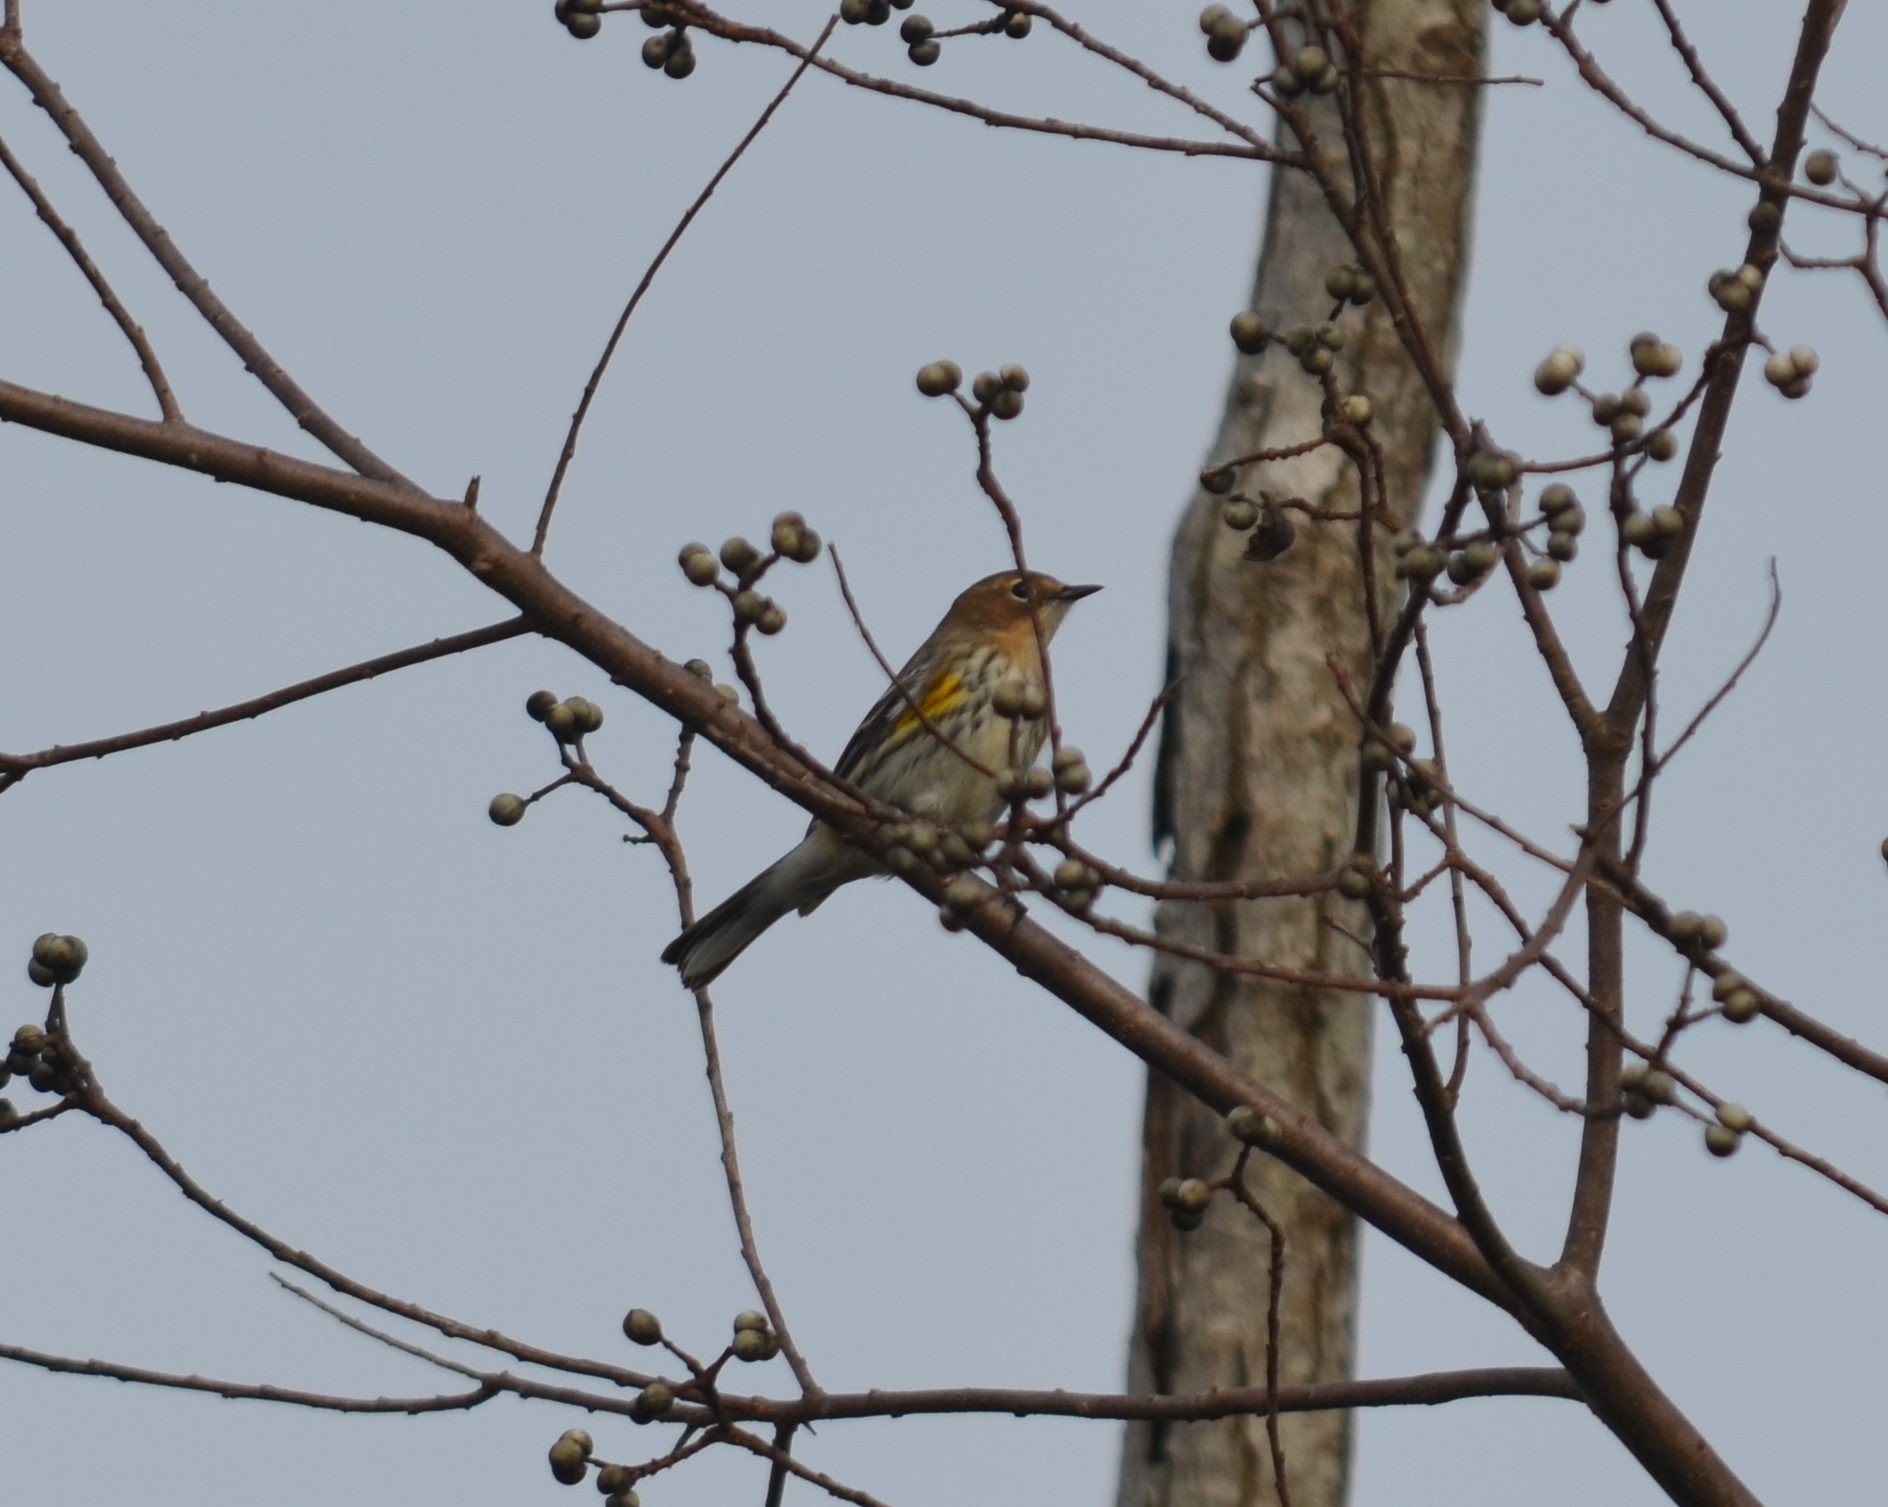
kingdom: Animalia
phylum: Chordata
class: Aves
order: Passeriformes
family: Parulidae
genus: Setophaga
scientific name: Setophaga coronata
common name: Myrtle warbler
